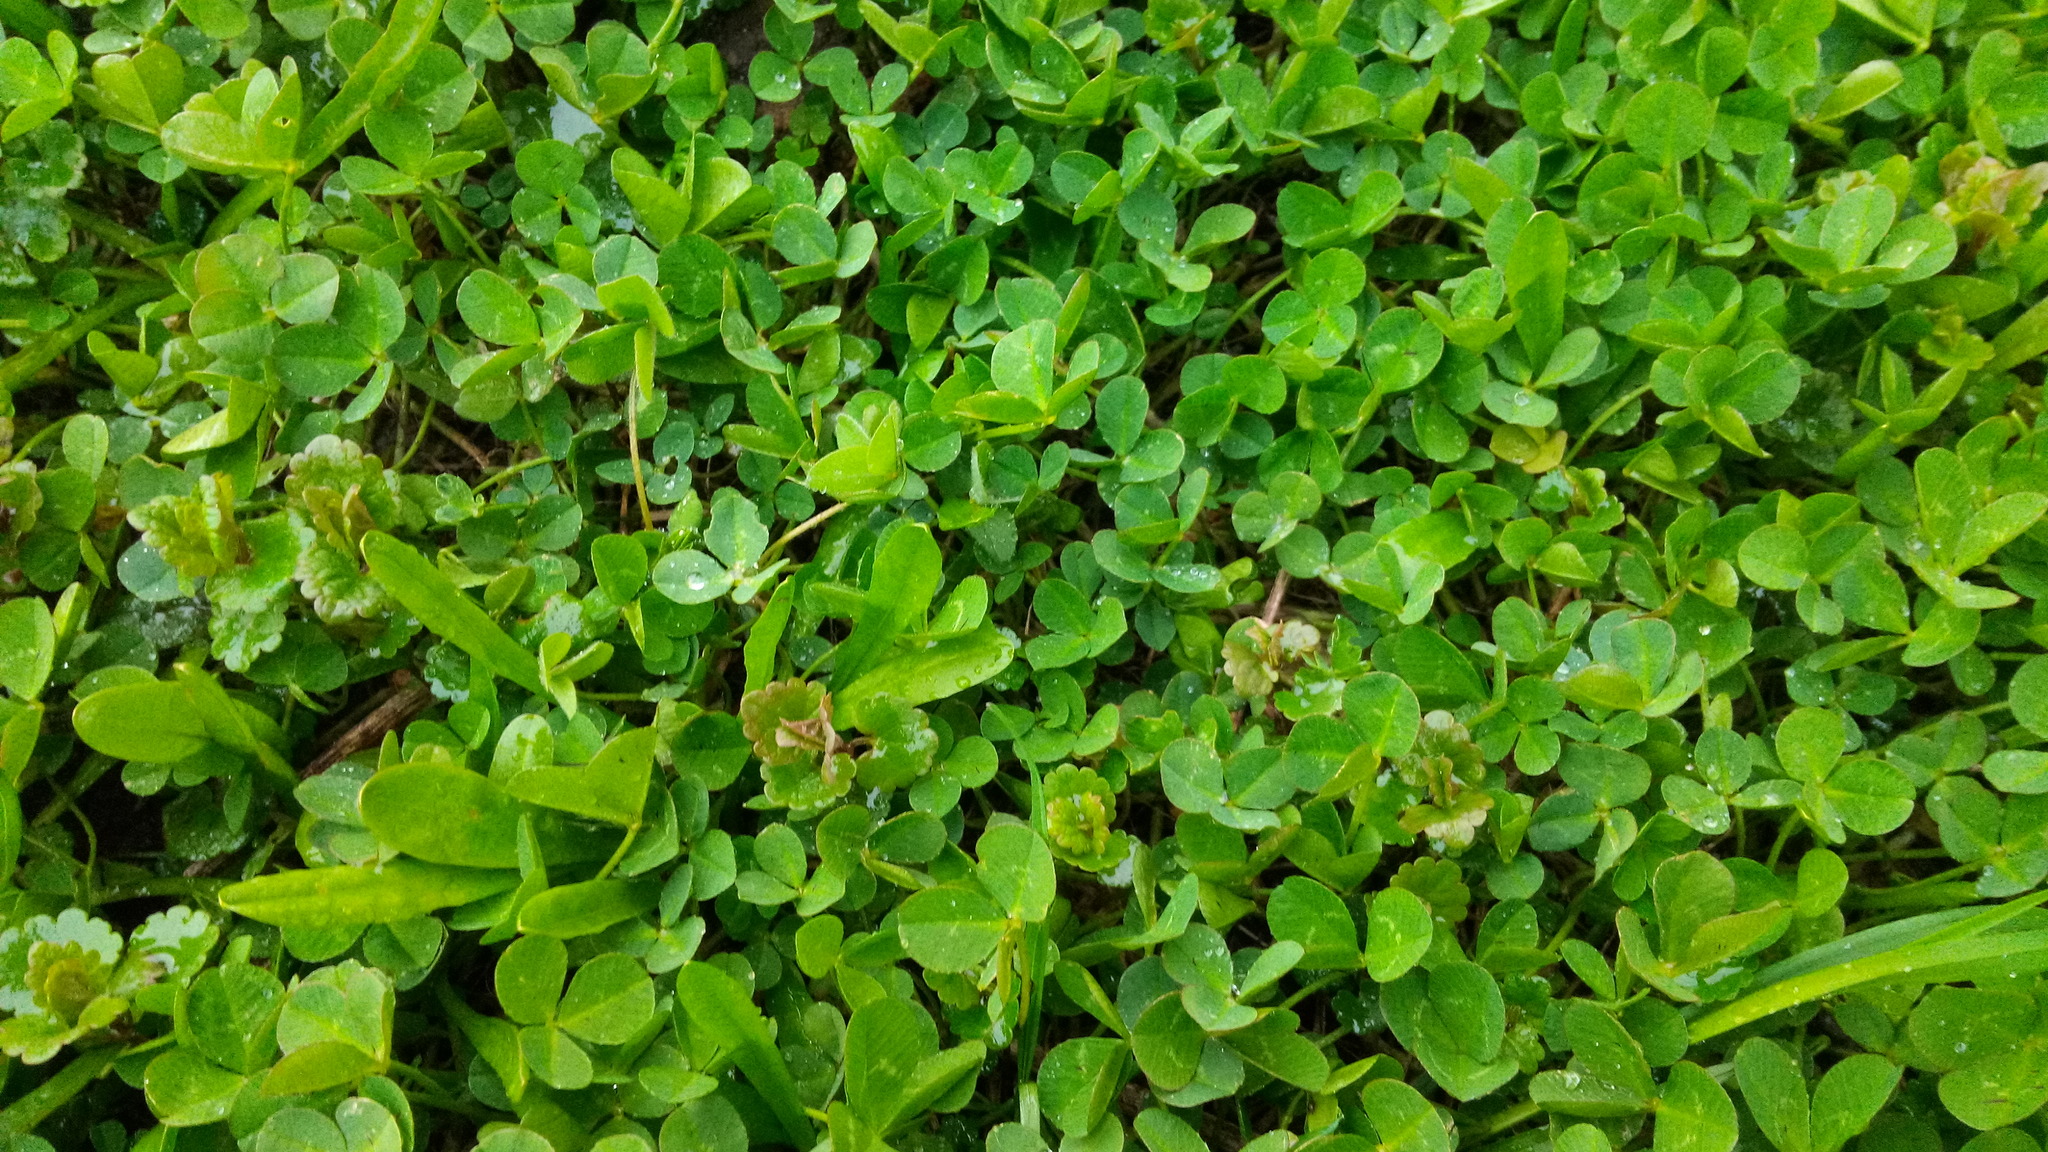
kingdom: Plantae
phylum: Tracheophyta
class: Magnoliopsida
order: Fabales
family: Fabaceae
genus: Trifolium
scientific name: Trifolium repens
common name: White clover
